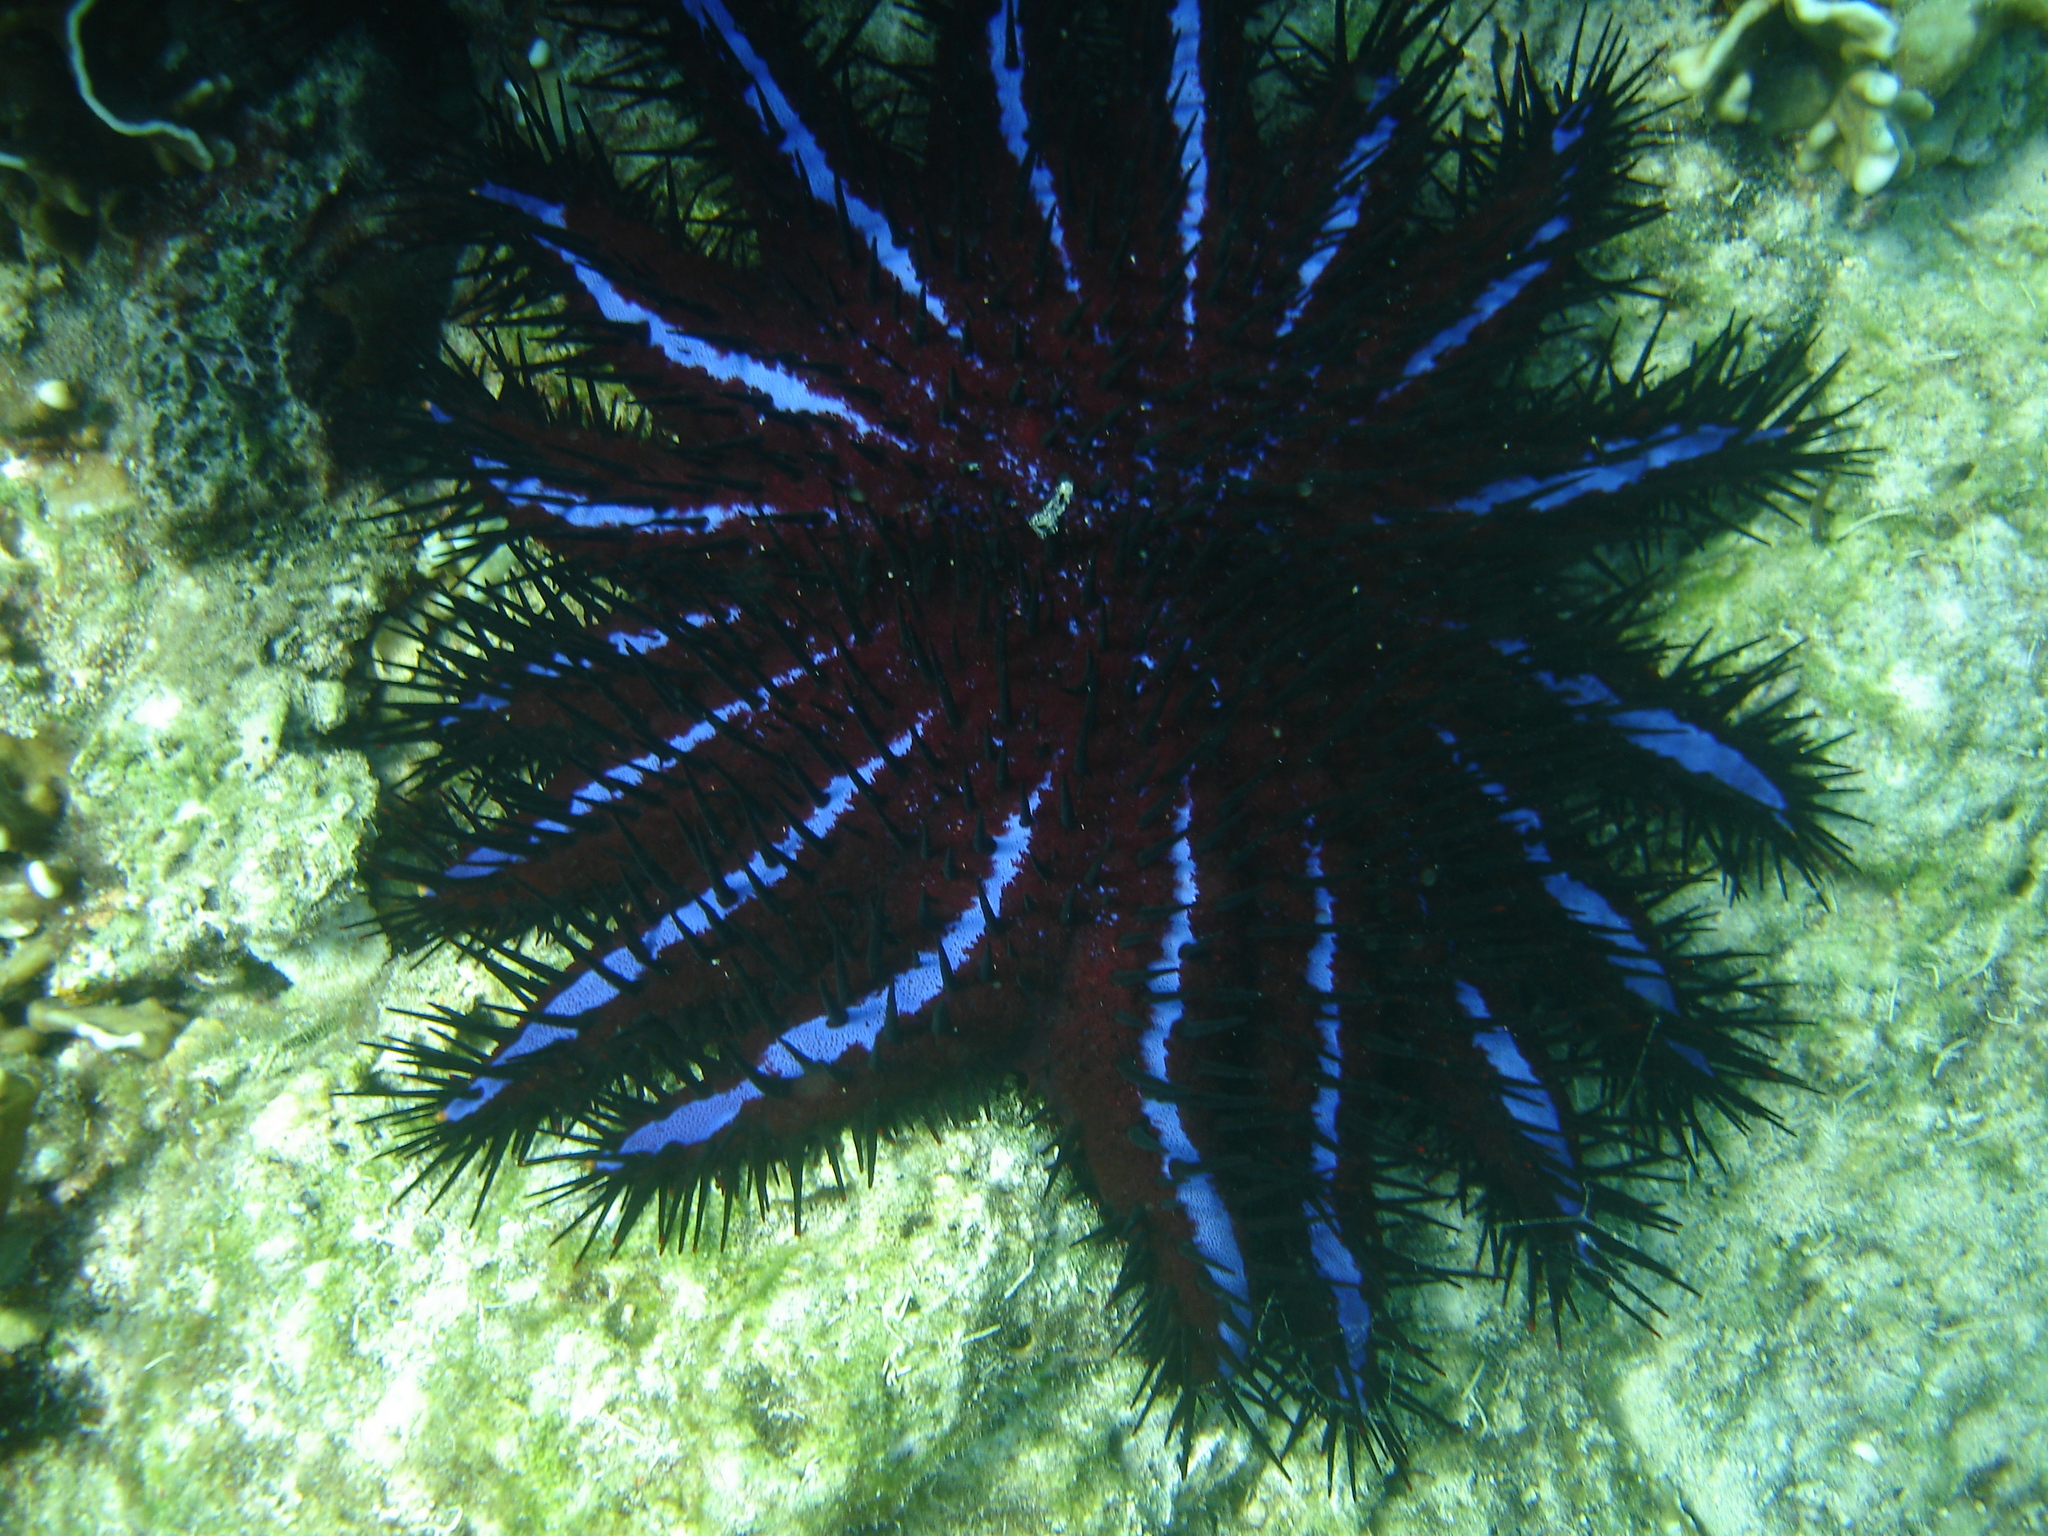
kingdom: Animalia
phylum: Echinodermata
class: Asteroidea
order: Valvatida
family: Acanthasteridae
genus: Acanthaster
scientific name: Acanthaster planci
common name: Crown-of-thorns
